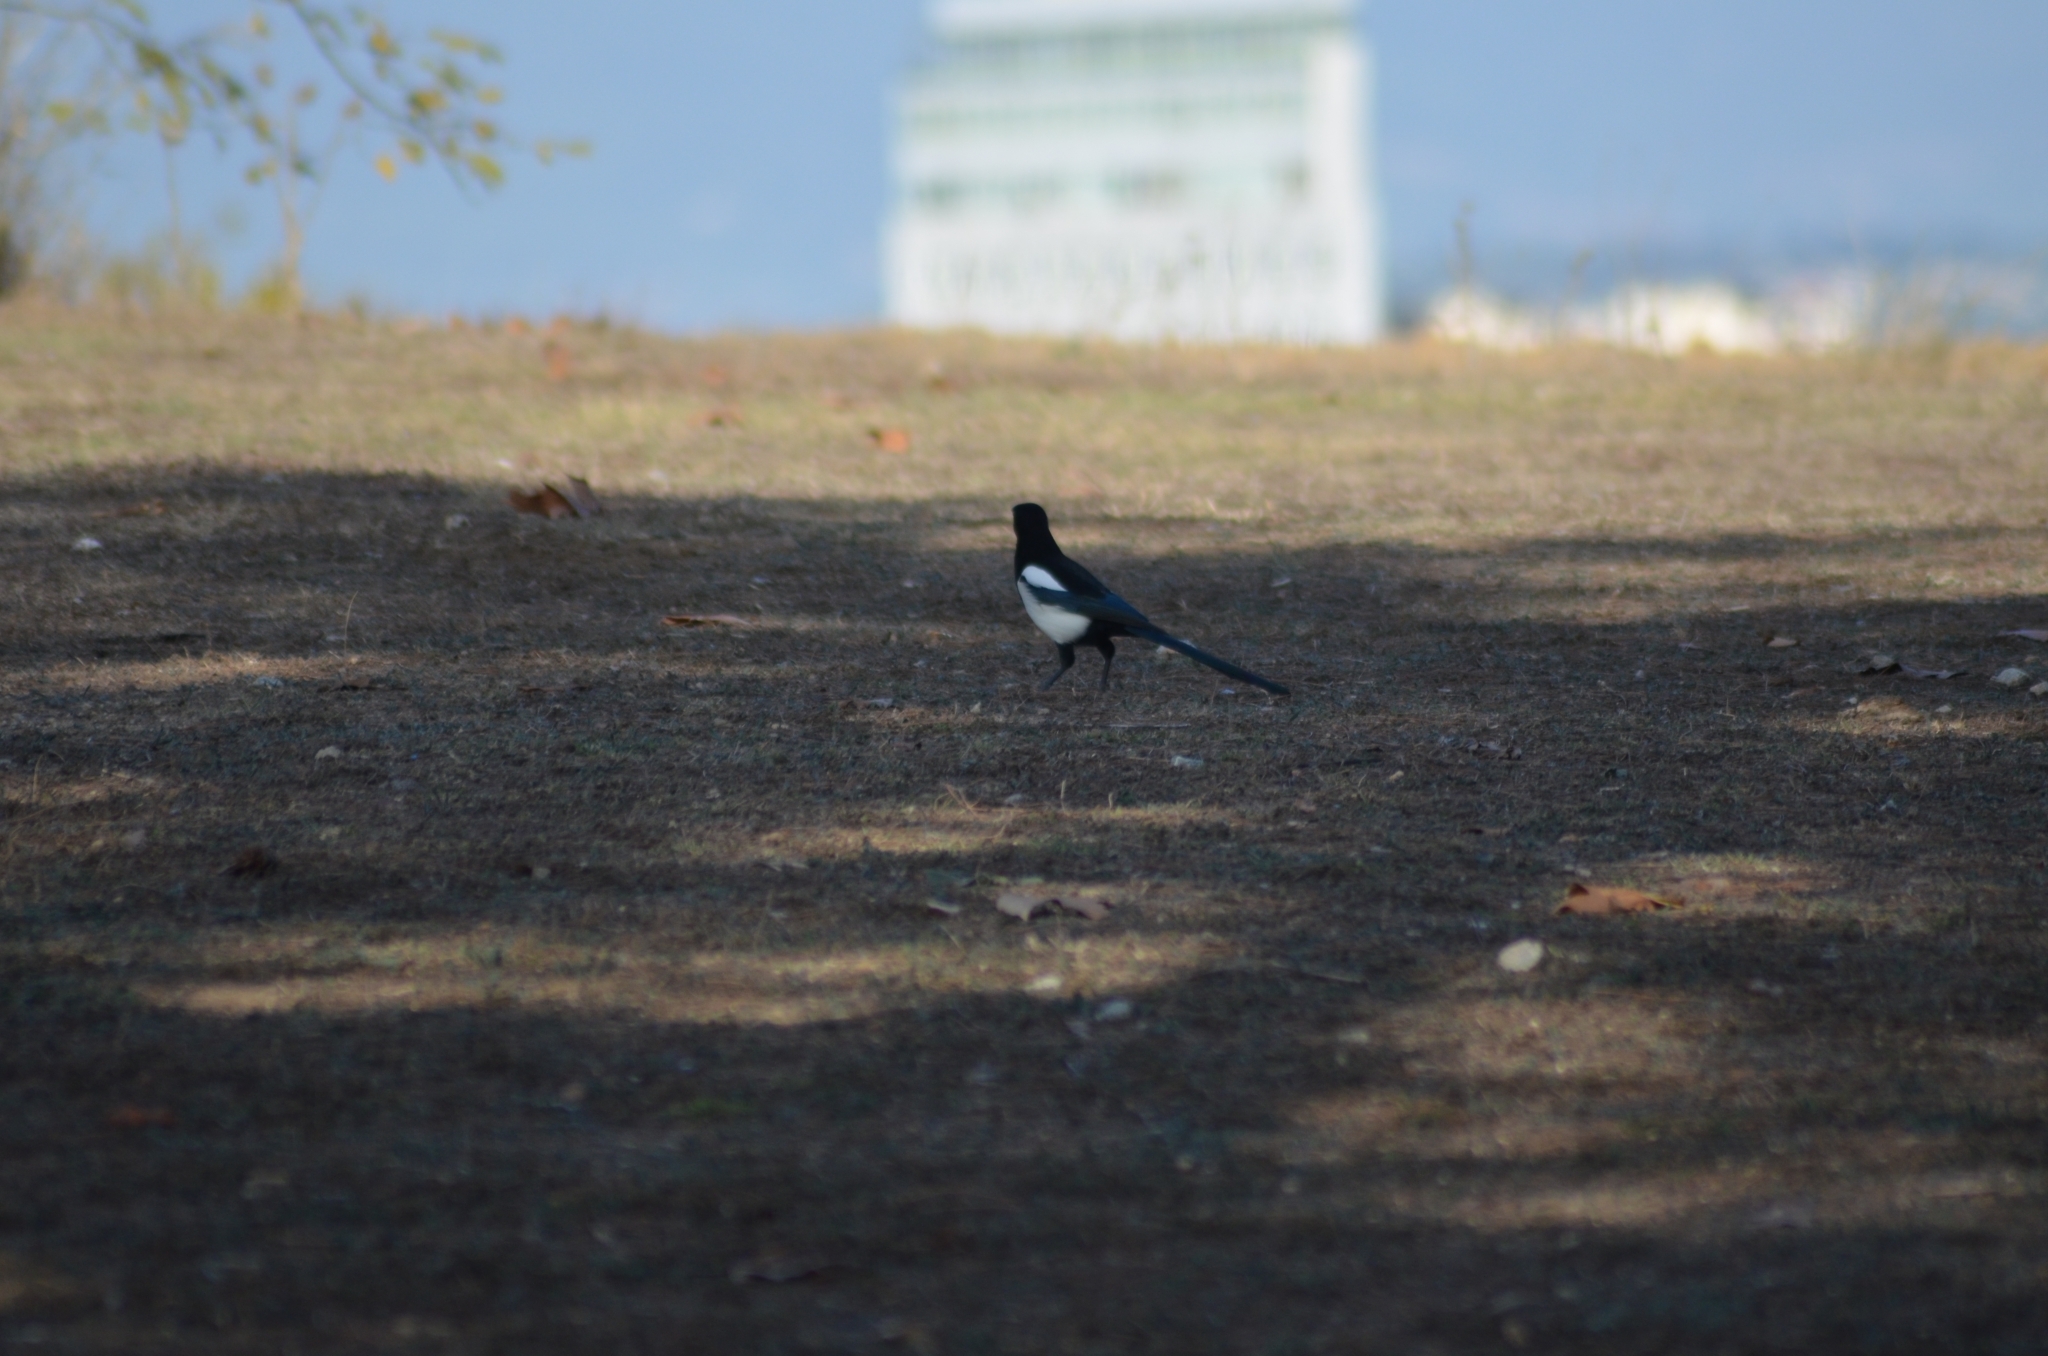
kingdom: Animalia
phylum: Chordata
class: Aves
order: Passeriformes
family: Corvidae
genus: Pica
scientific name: Pica pica
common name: Eurasian magpie
